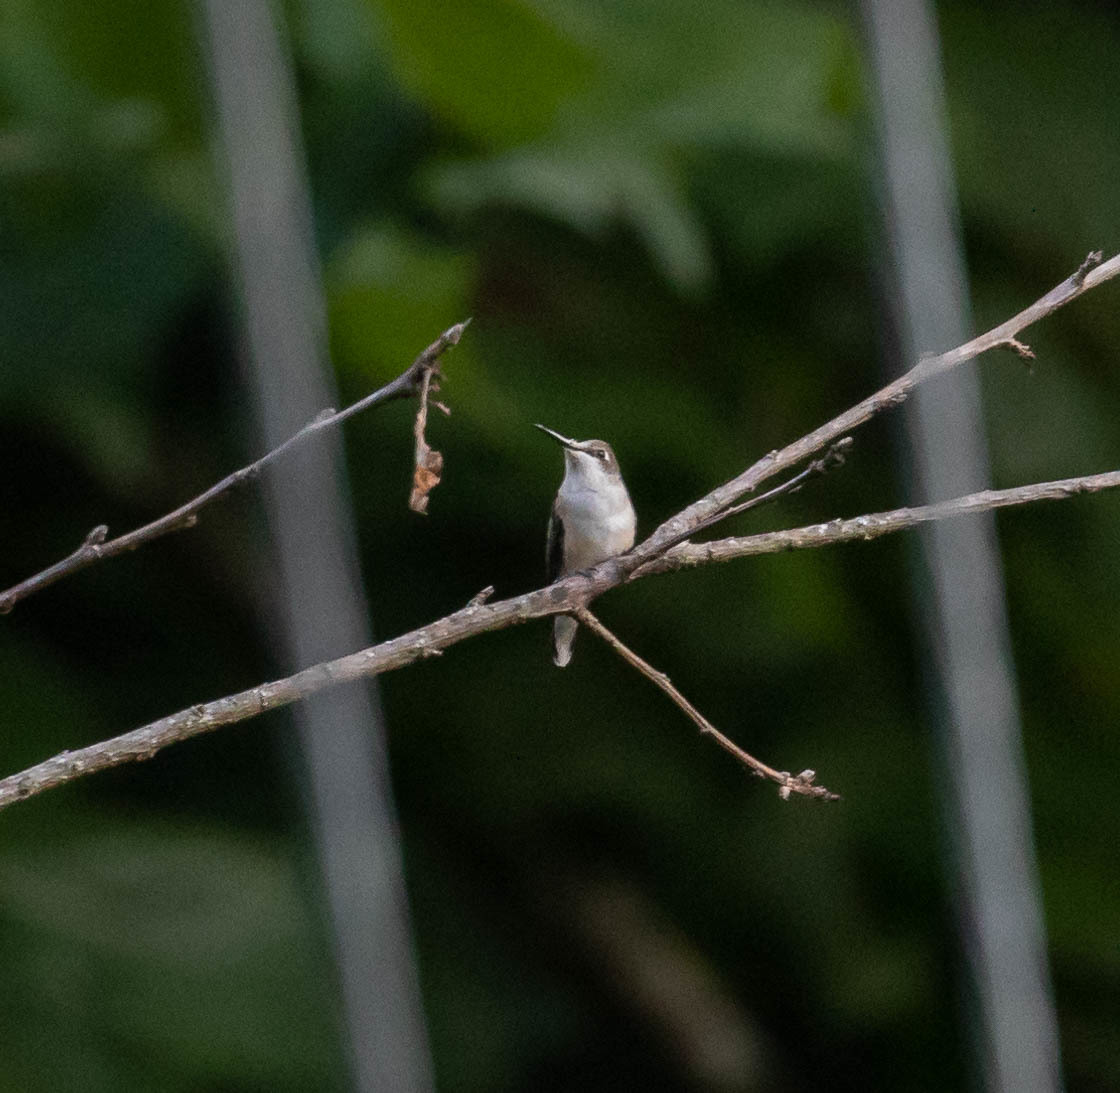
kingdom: Animalia
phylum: Chordata
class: Aves
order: Apodiformes
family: Trochilidae
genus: Archilochus
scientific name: Archilochus colubris
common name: Ruby-throated hummingbird
